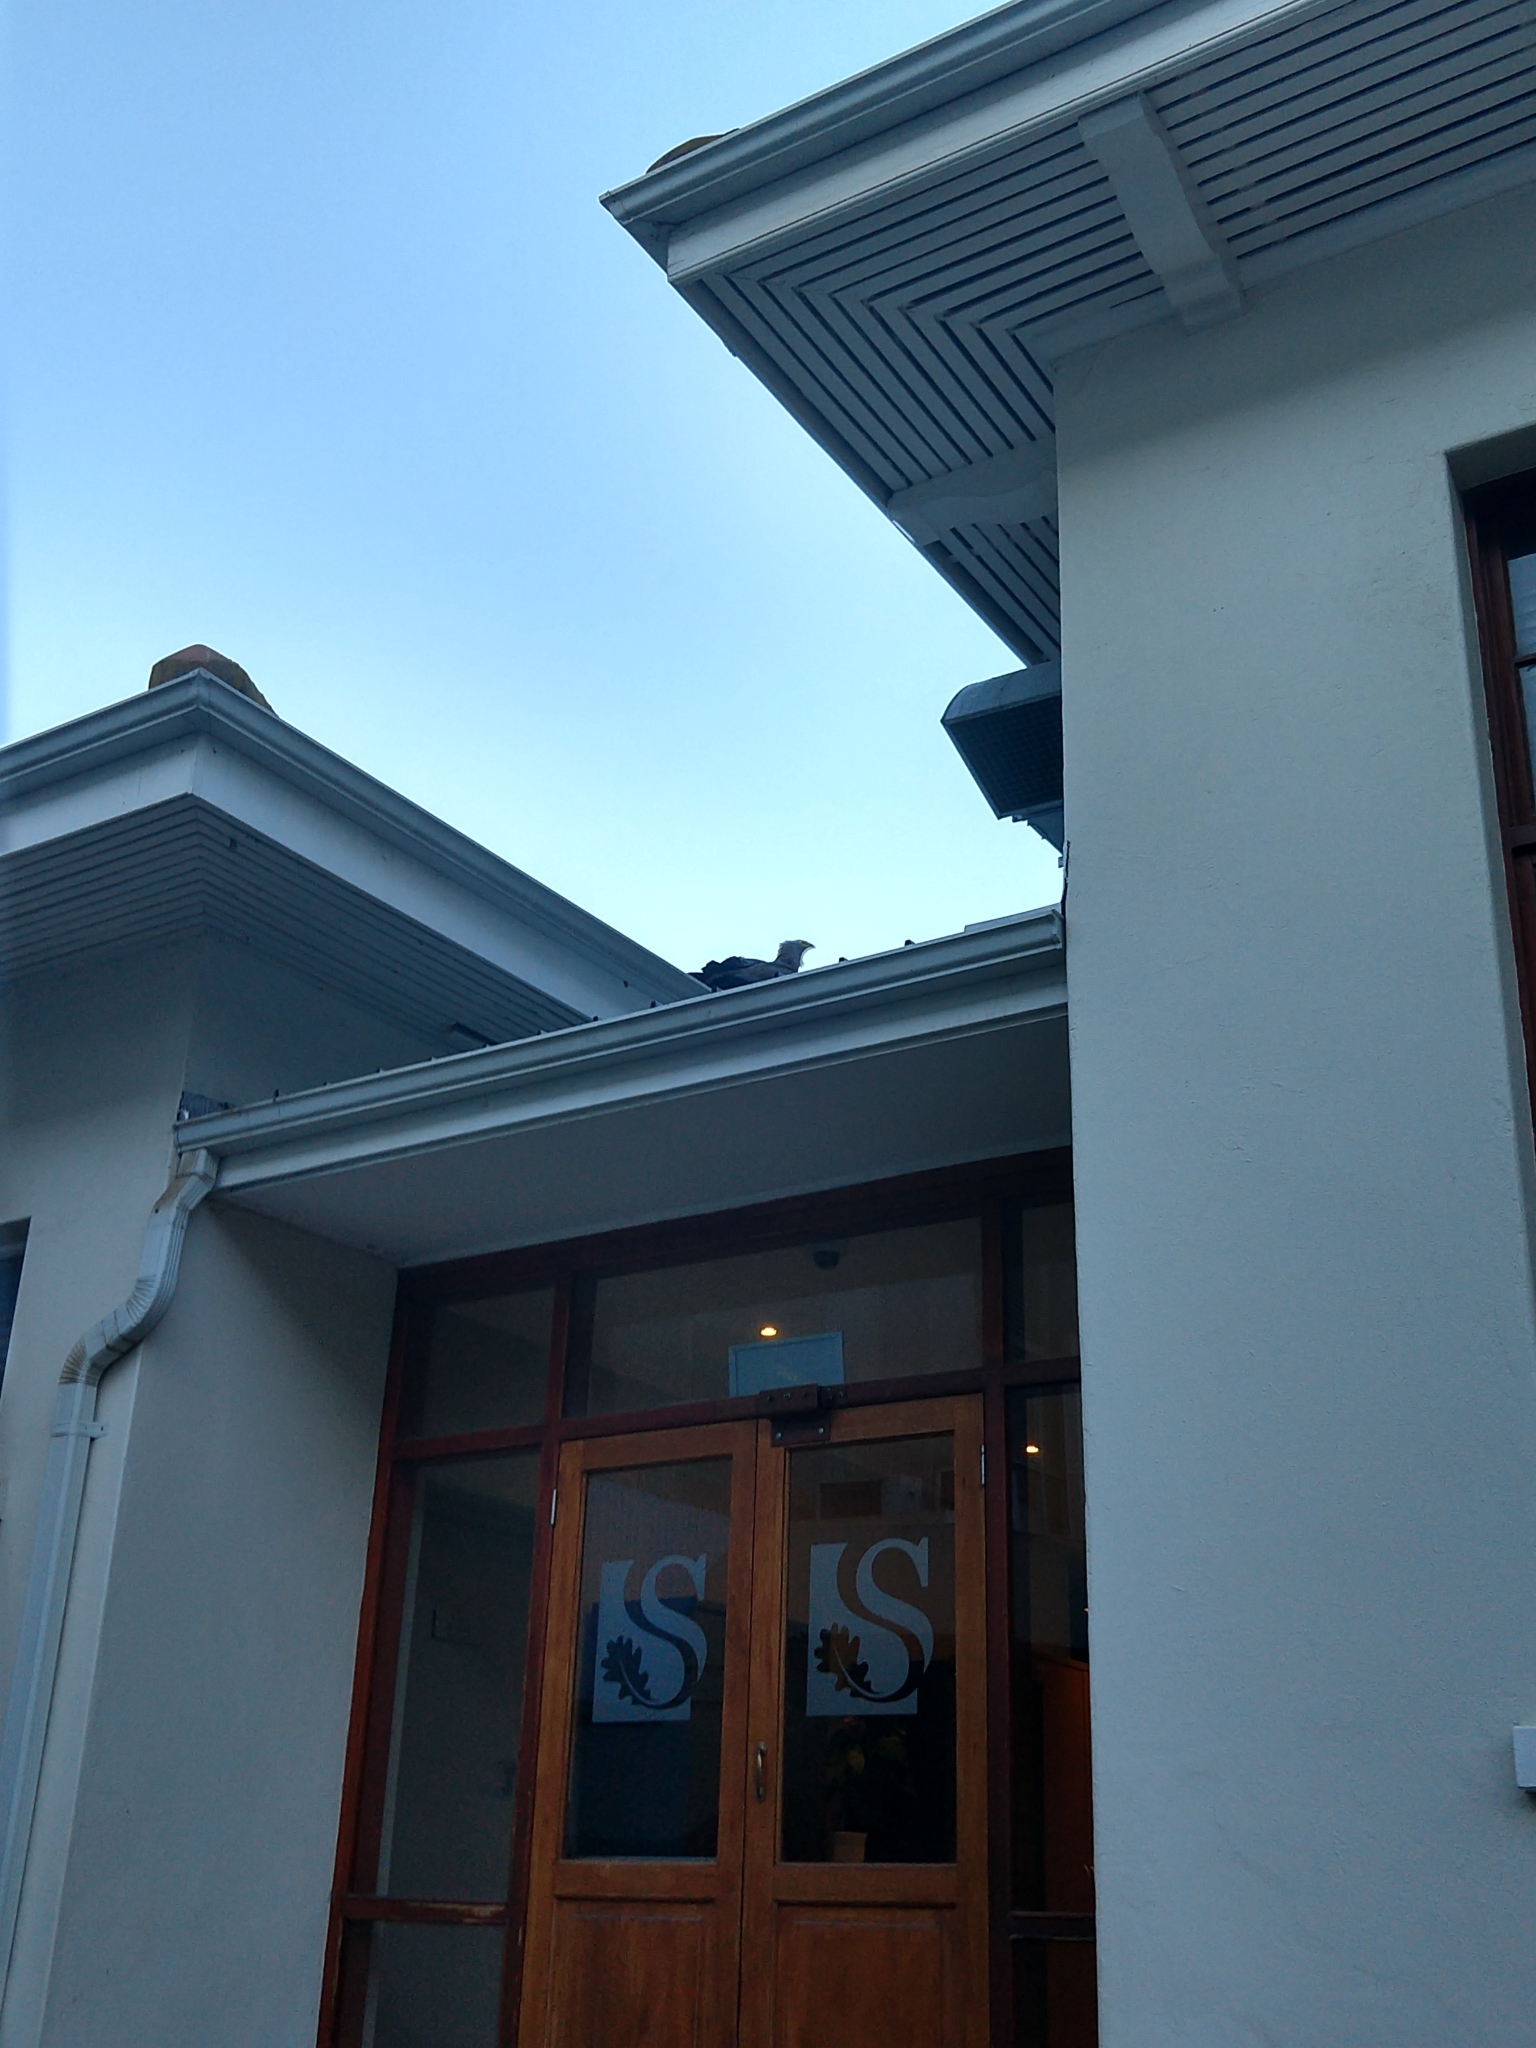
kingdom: Animalia
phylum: Chordata
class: Aves
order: Accipitriformes
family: Accipitridae
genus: Polyboroides
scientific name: Polyboroides typus
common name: African harrier-hawk
